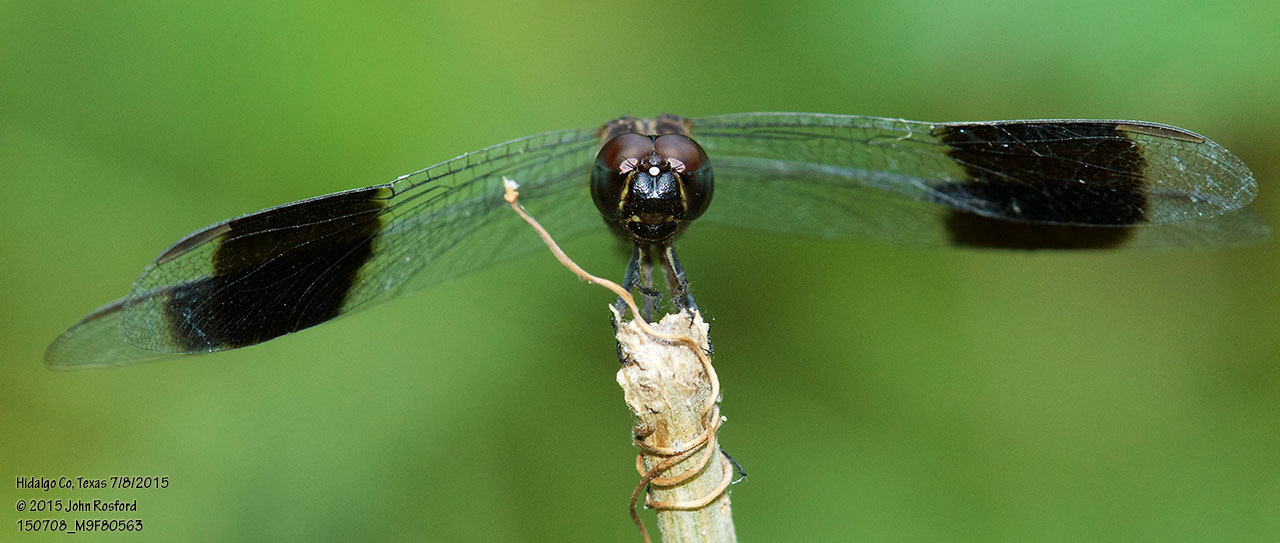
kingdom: Animalia
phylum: Arthropoda
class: Insecta
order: Odonata
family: Libellulidae
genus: Erythrodiplax
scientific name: Erythrodiplax umbrata
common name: Band-winged dragonlet
